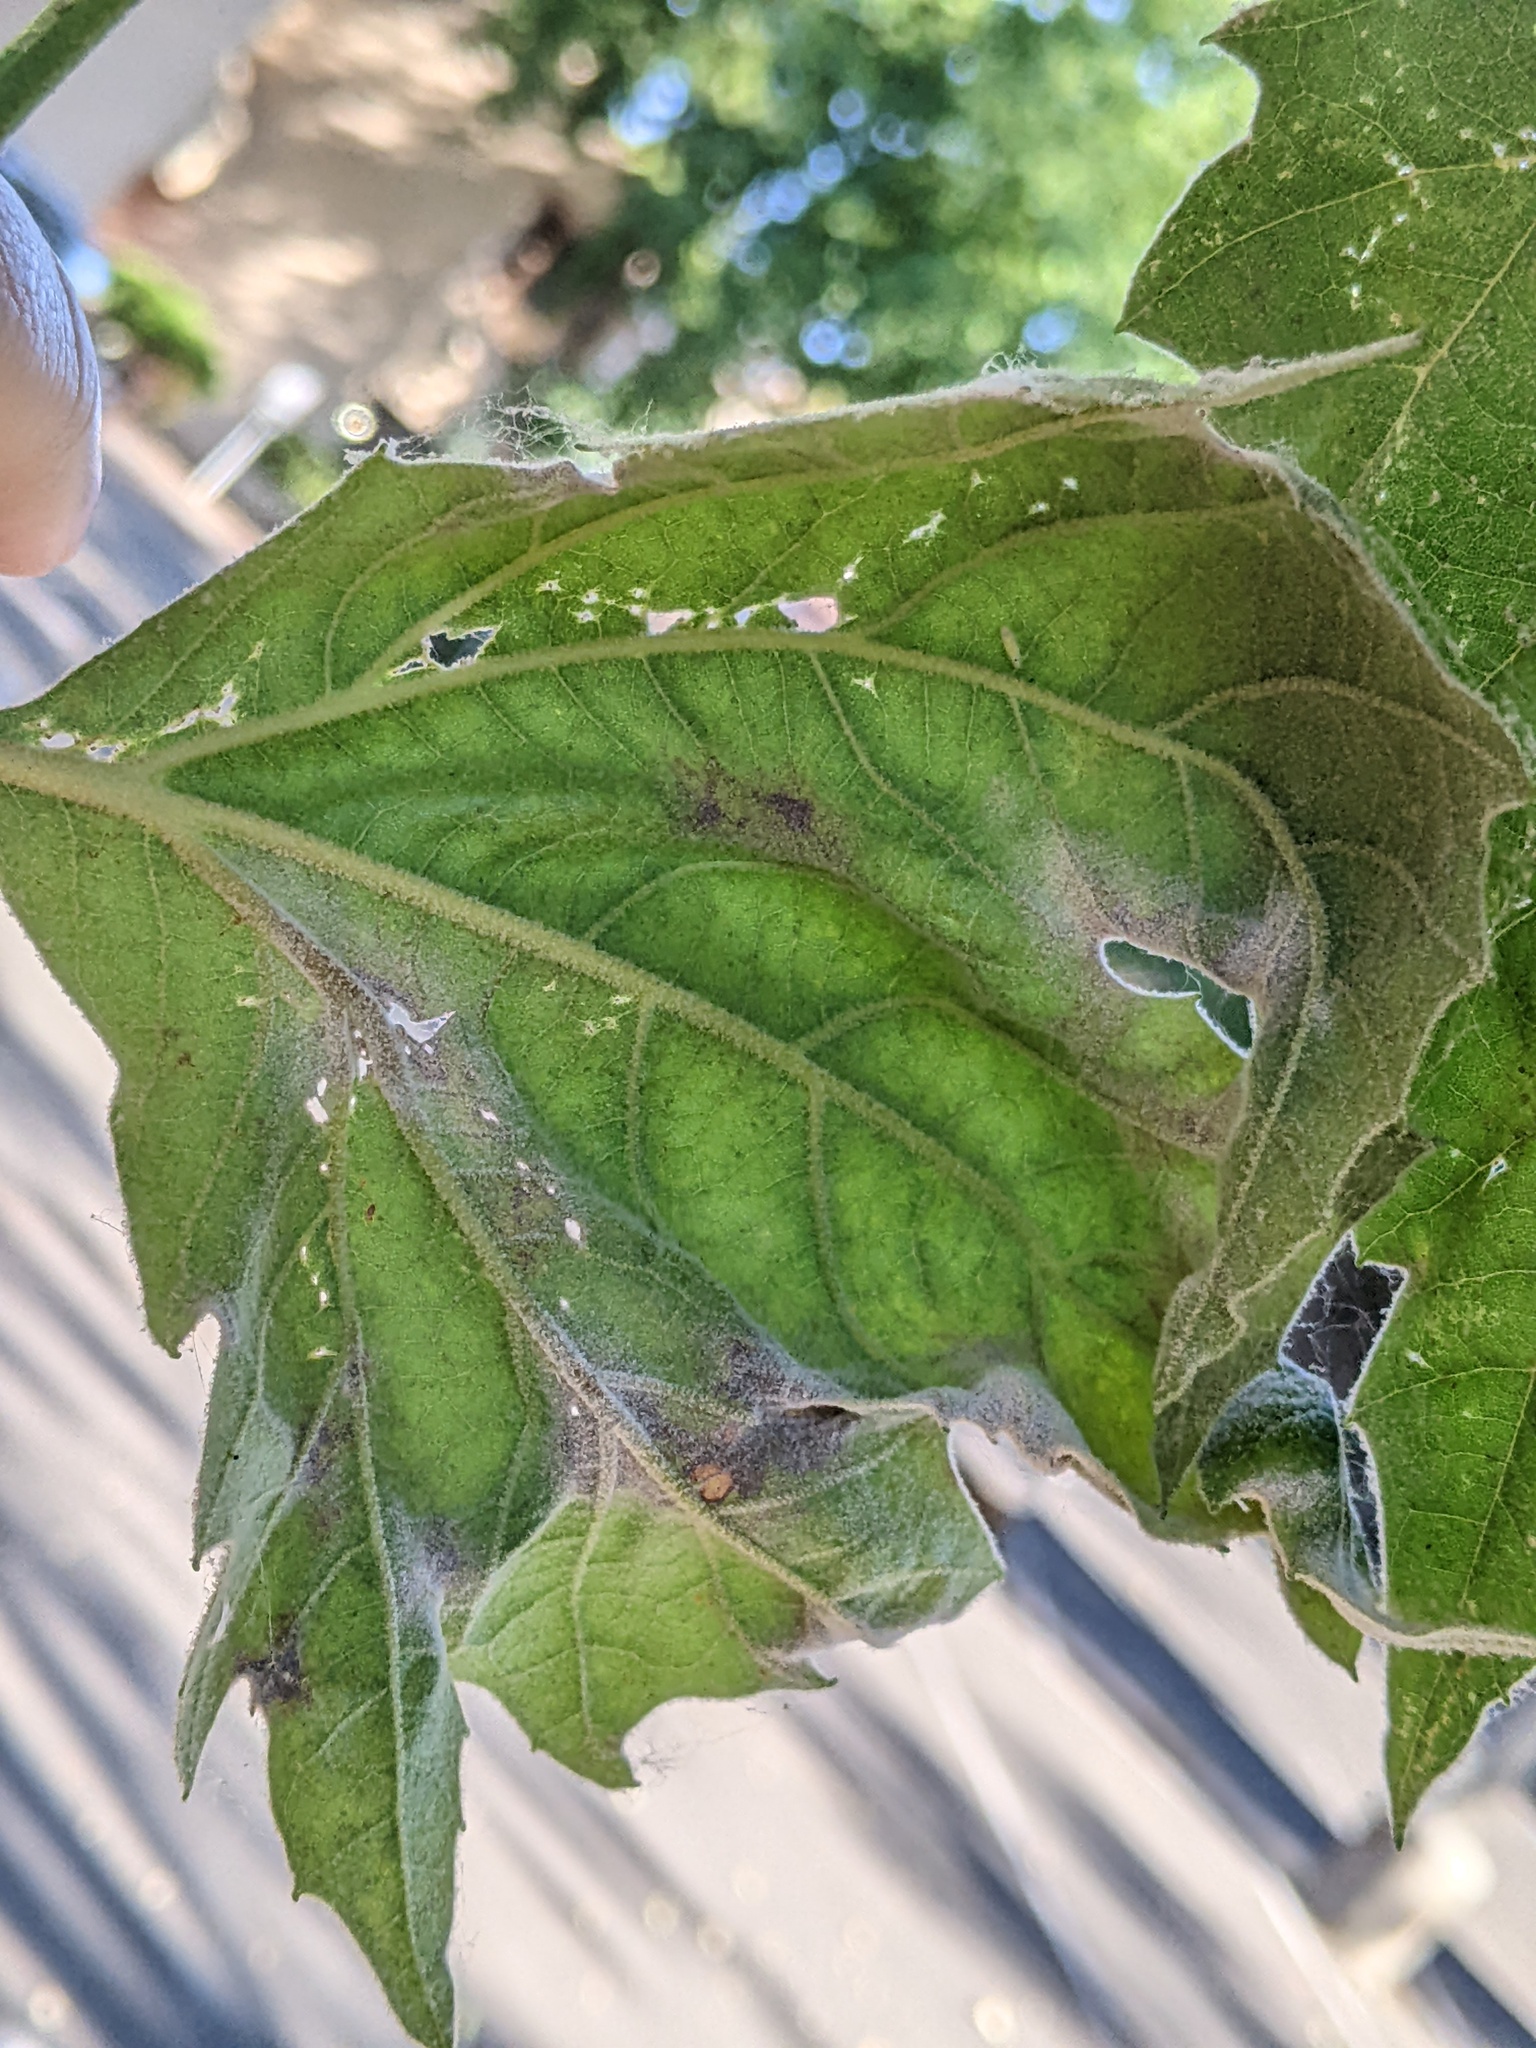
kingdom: Fungi
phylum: Ascomycota
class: Leotiomycetes
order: Helotiales
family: Erysiphaceae
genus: Erysiphe
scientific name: Erysiphe platani
